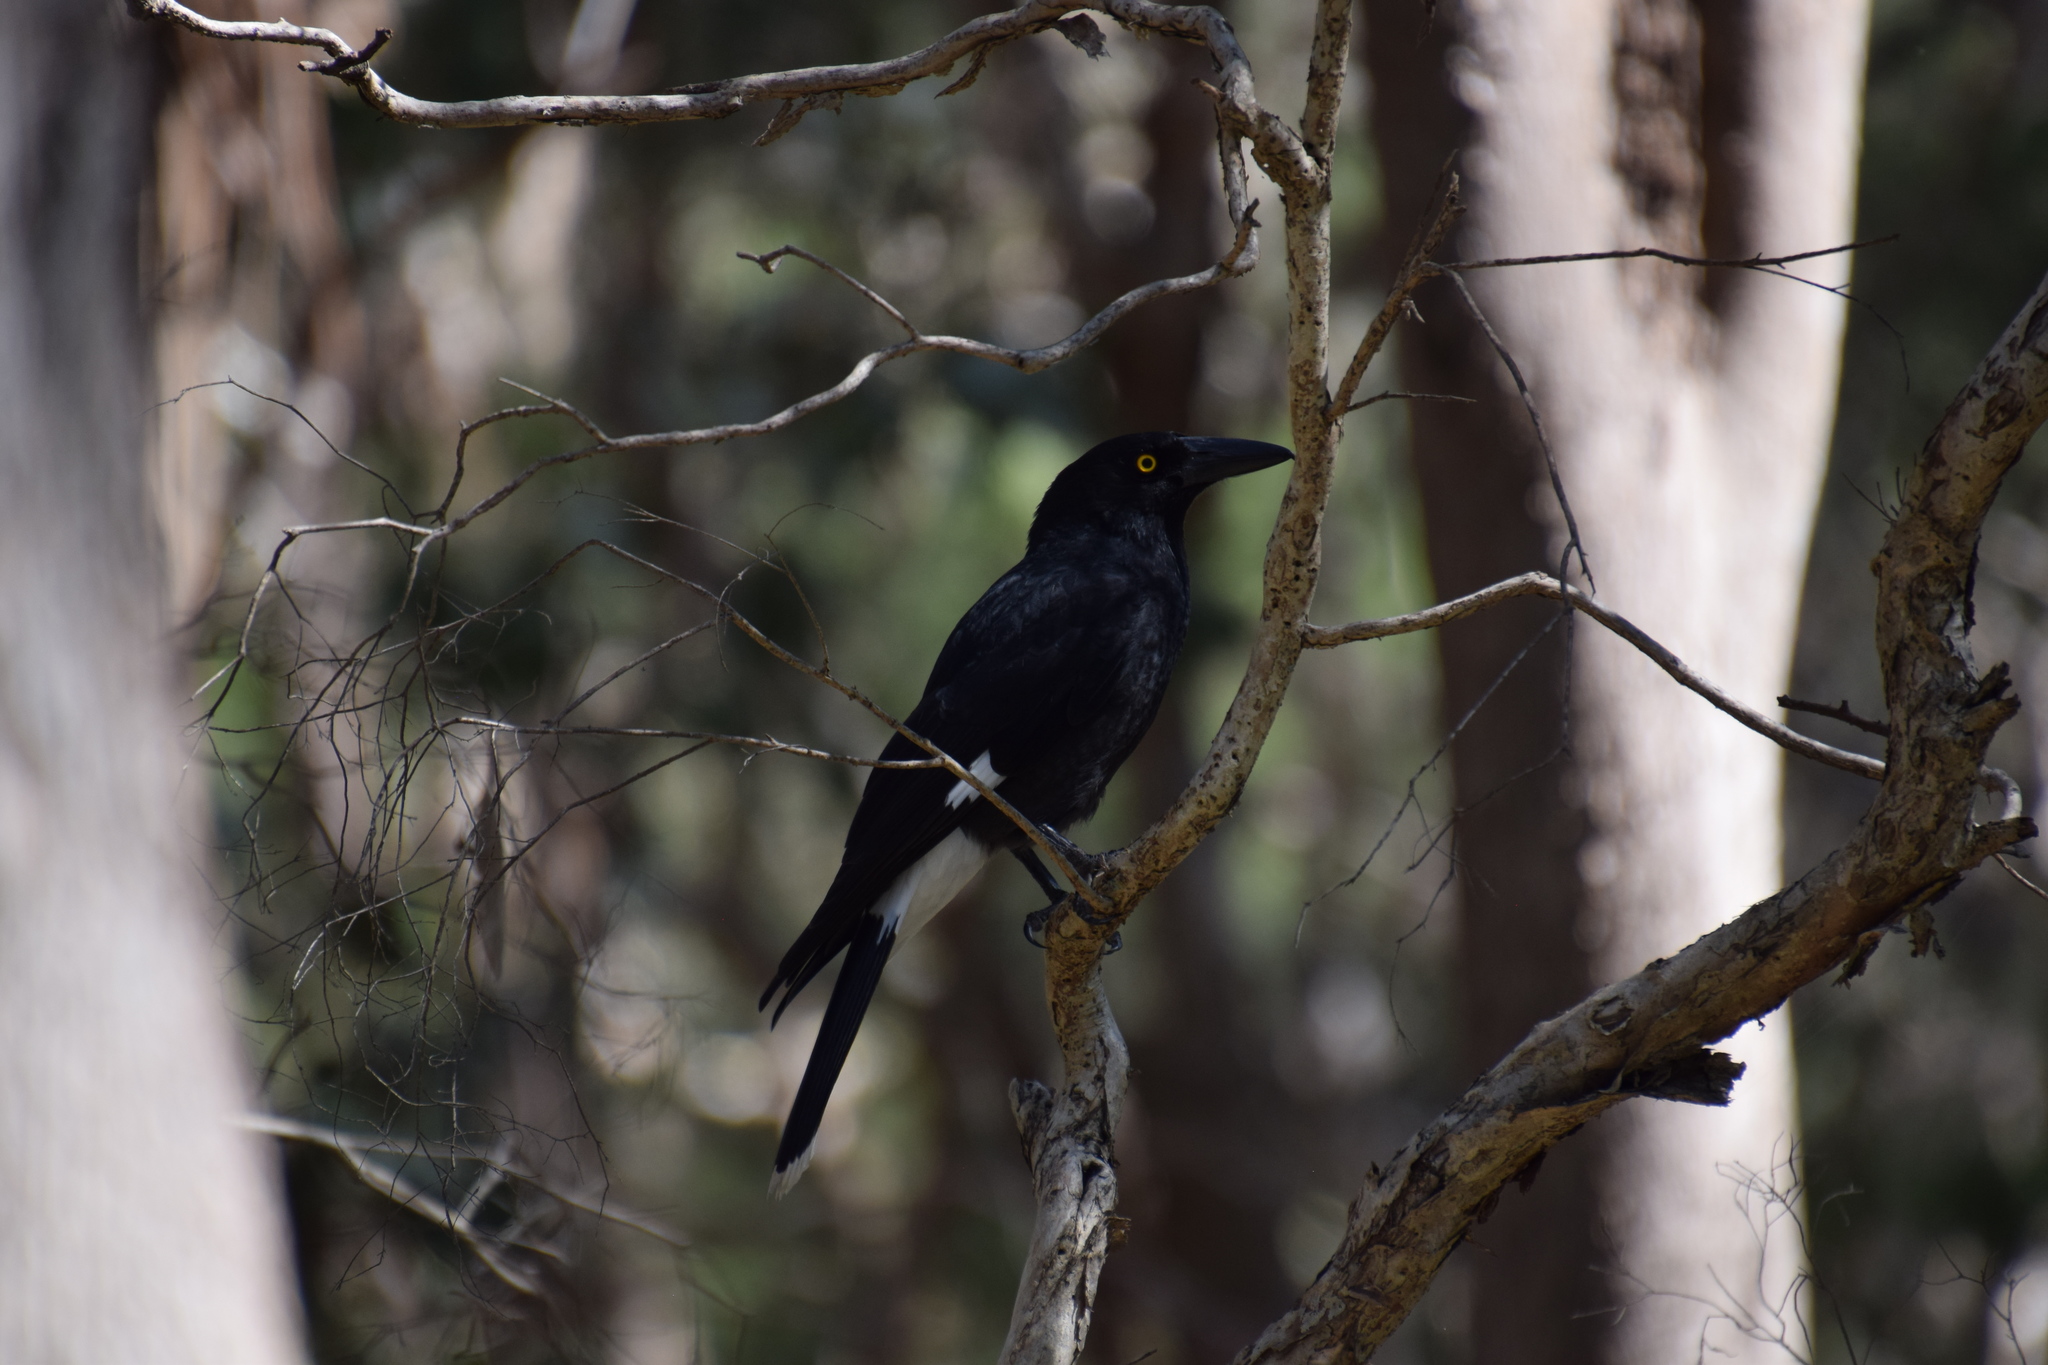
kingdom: Animalia
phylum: Chordata
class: Aves
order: Passeriformes
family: Cracticidae
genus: Strepera
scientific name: Strepera graculina
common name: Pied currawong
